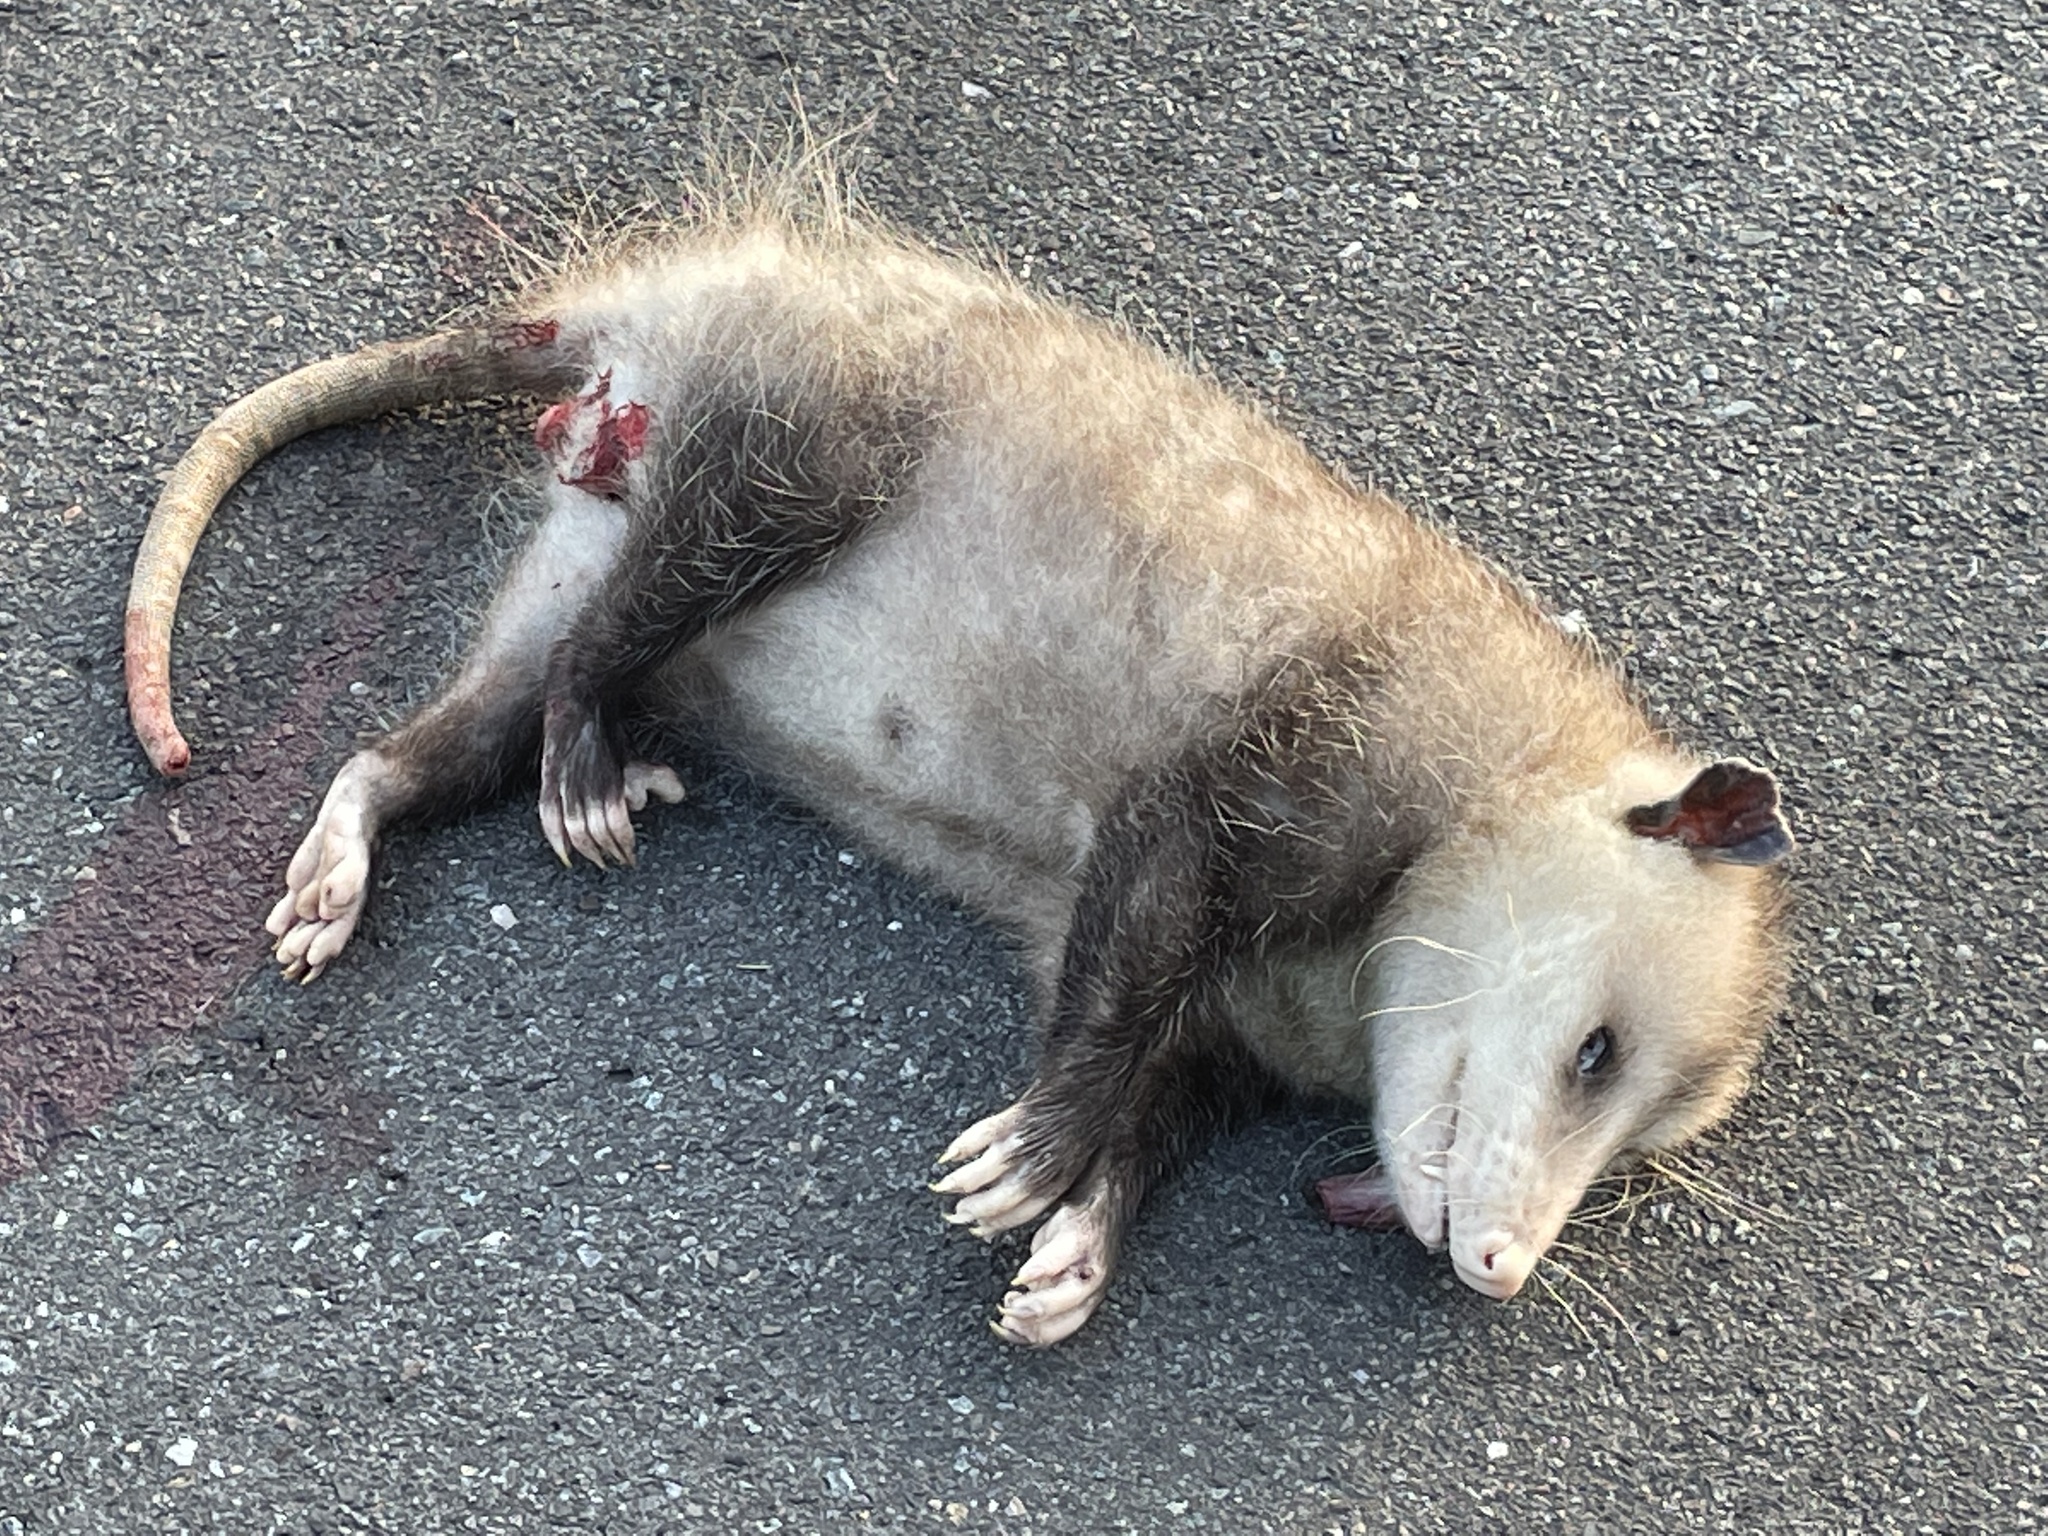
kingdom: Animalia
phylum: Chordata
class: Mammalia
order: Didelphimorphia
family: Didelphidae
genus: Didelphis
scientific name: Didelphis virginiana
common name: Virginia opossum
